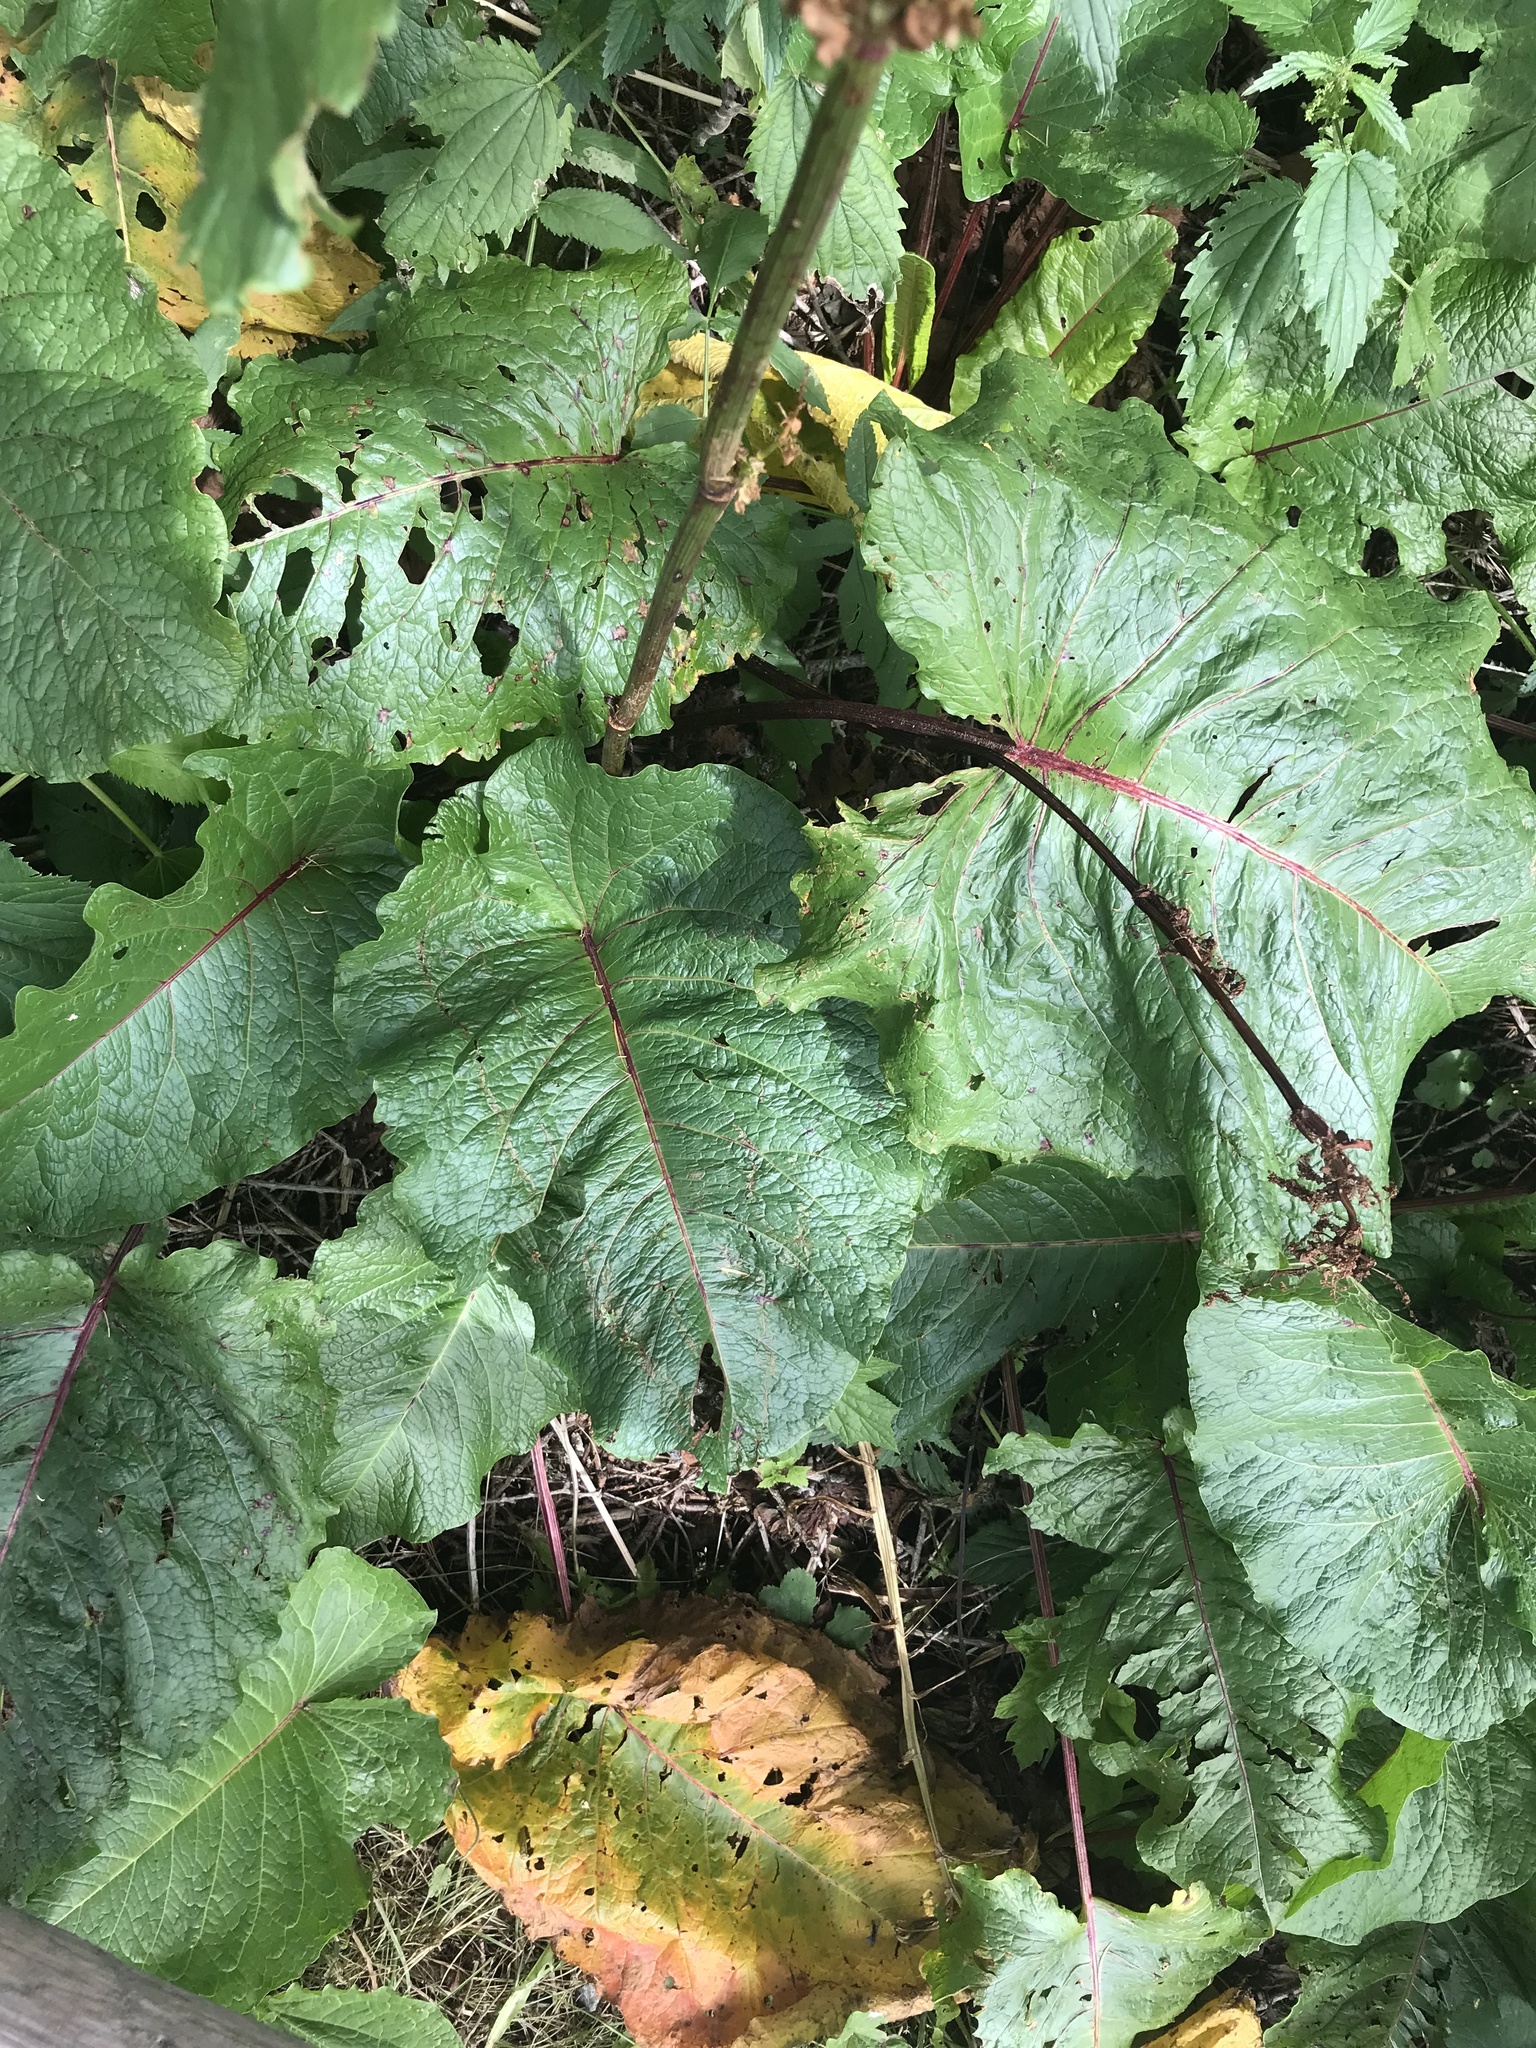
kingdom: Plantae
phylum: Tracheophyta
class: Magnoliopsida
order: Caryophyllales
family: Polygonaceae
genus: Rumex
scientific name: Rumex alpinus
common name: Alpine dock
